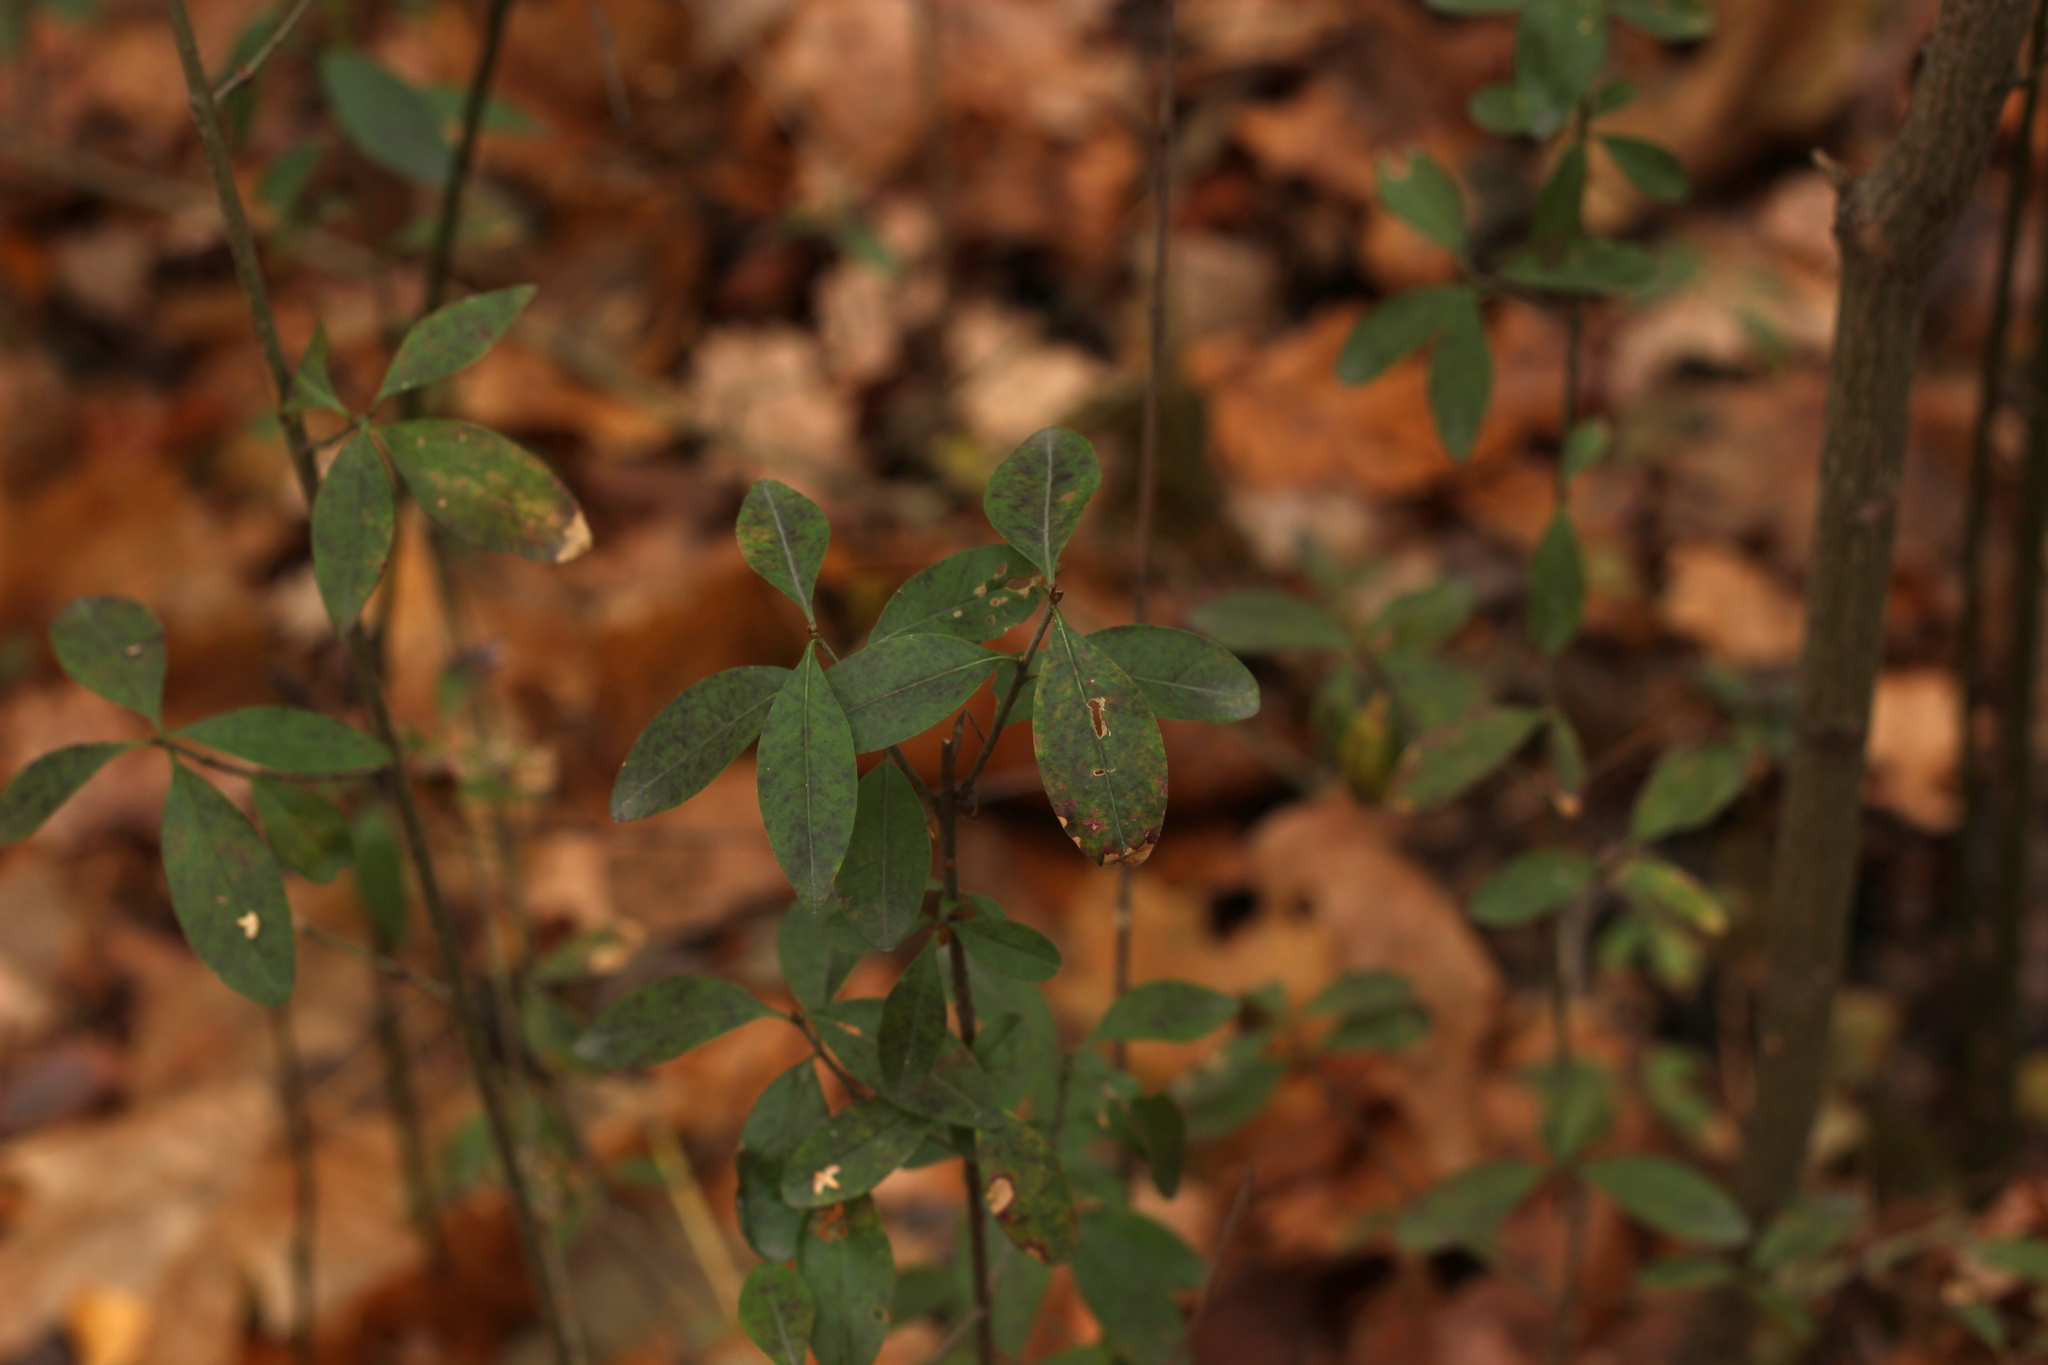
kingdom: Plantae
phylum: Tracheophyta
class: Magnoliopsida
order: Lamiales
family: Oleaceae
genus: Ligustrum
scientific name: Ligustrum vulgare
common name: Wild privet
